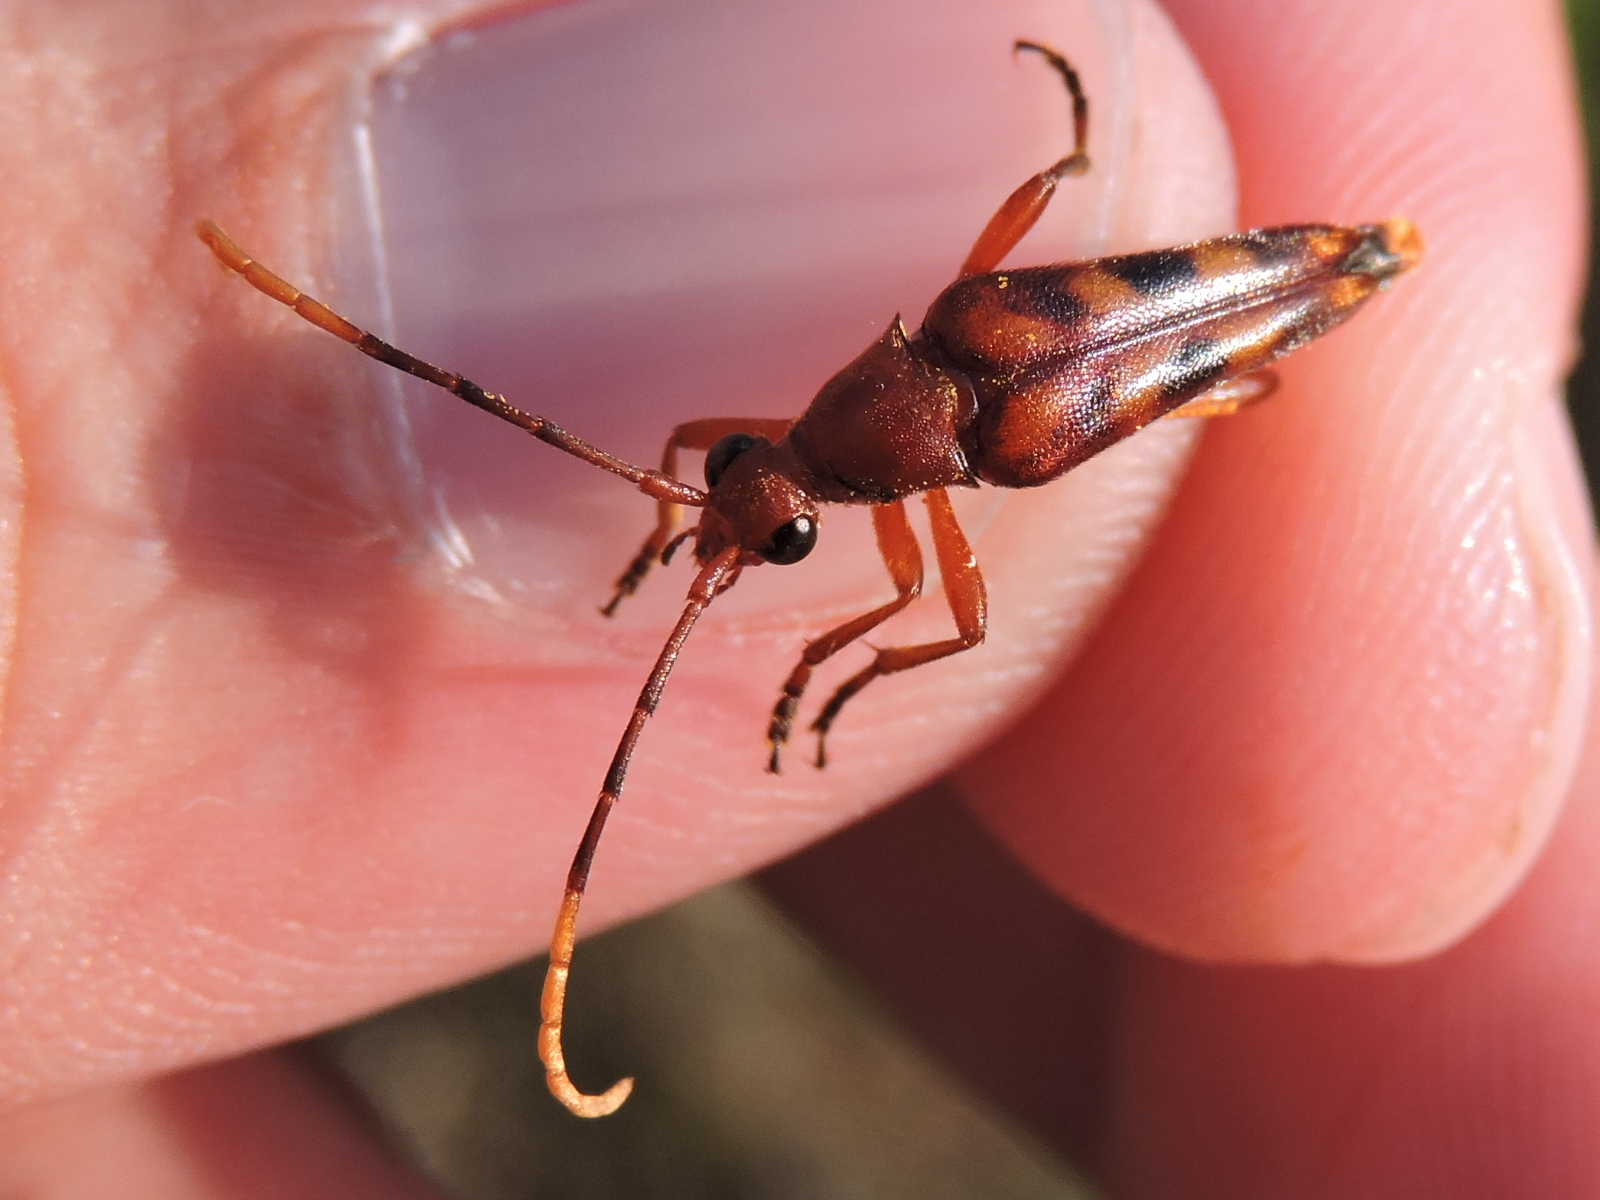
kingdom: Animalia
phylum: Arthropoda
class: Insecta
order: Coleoptera
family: Cerambycidae
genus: Strangalia
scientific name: Strangalia sexnotata
